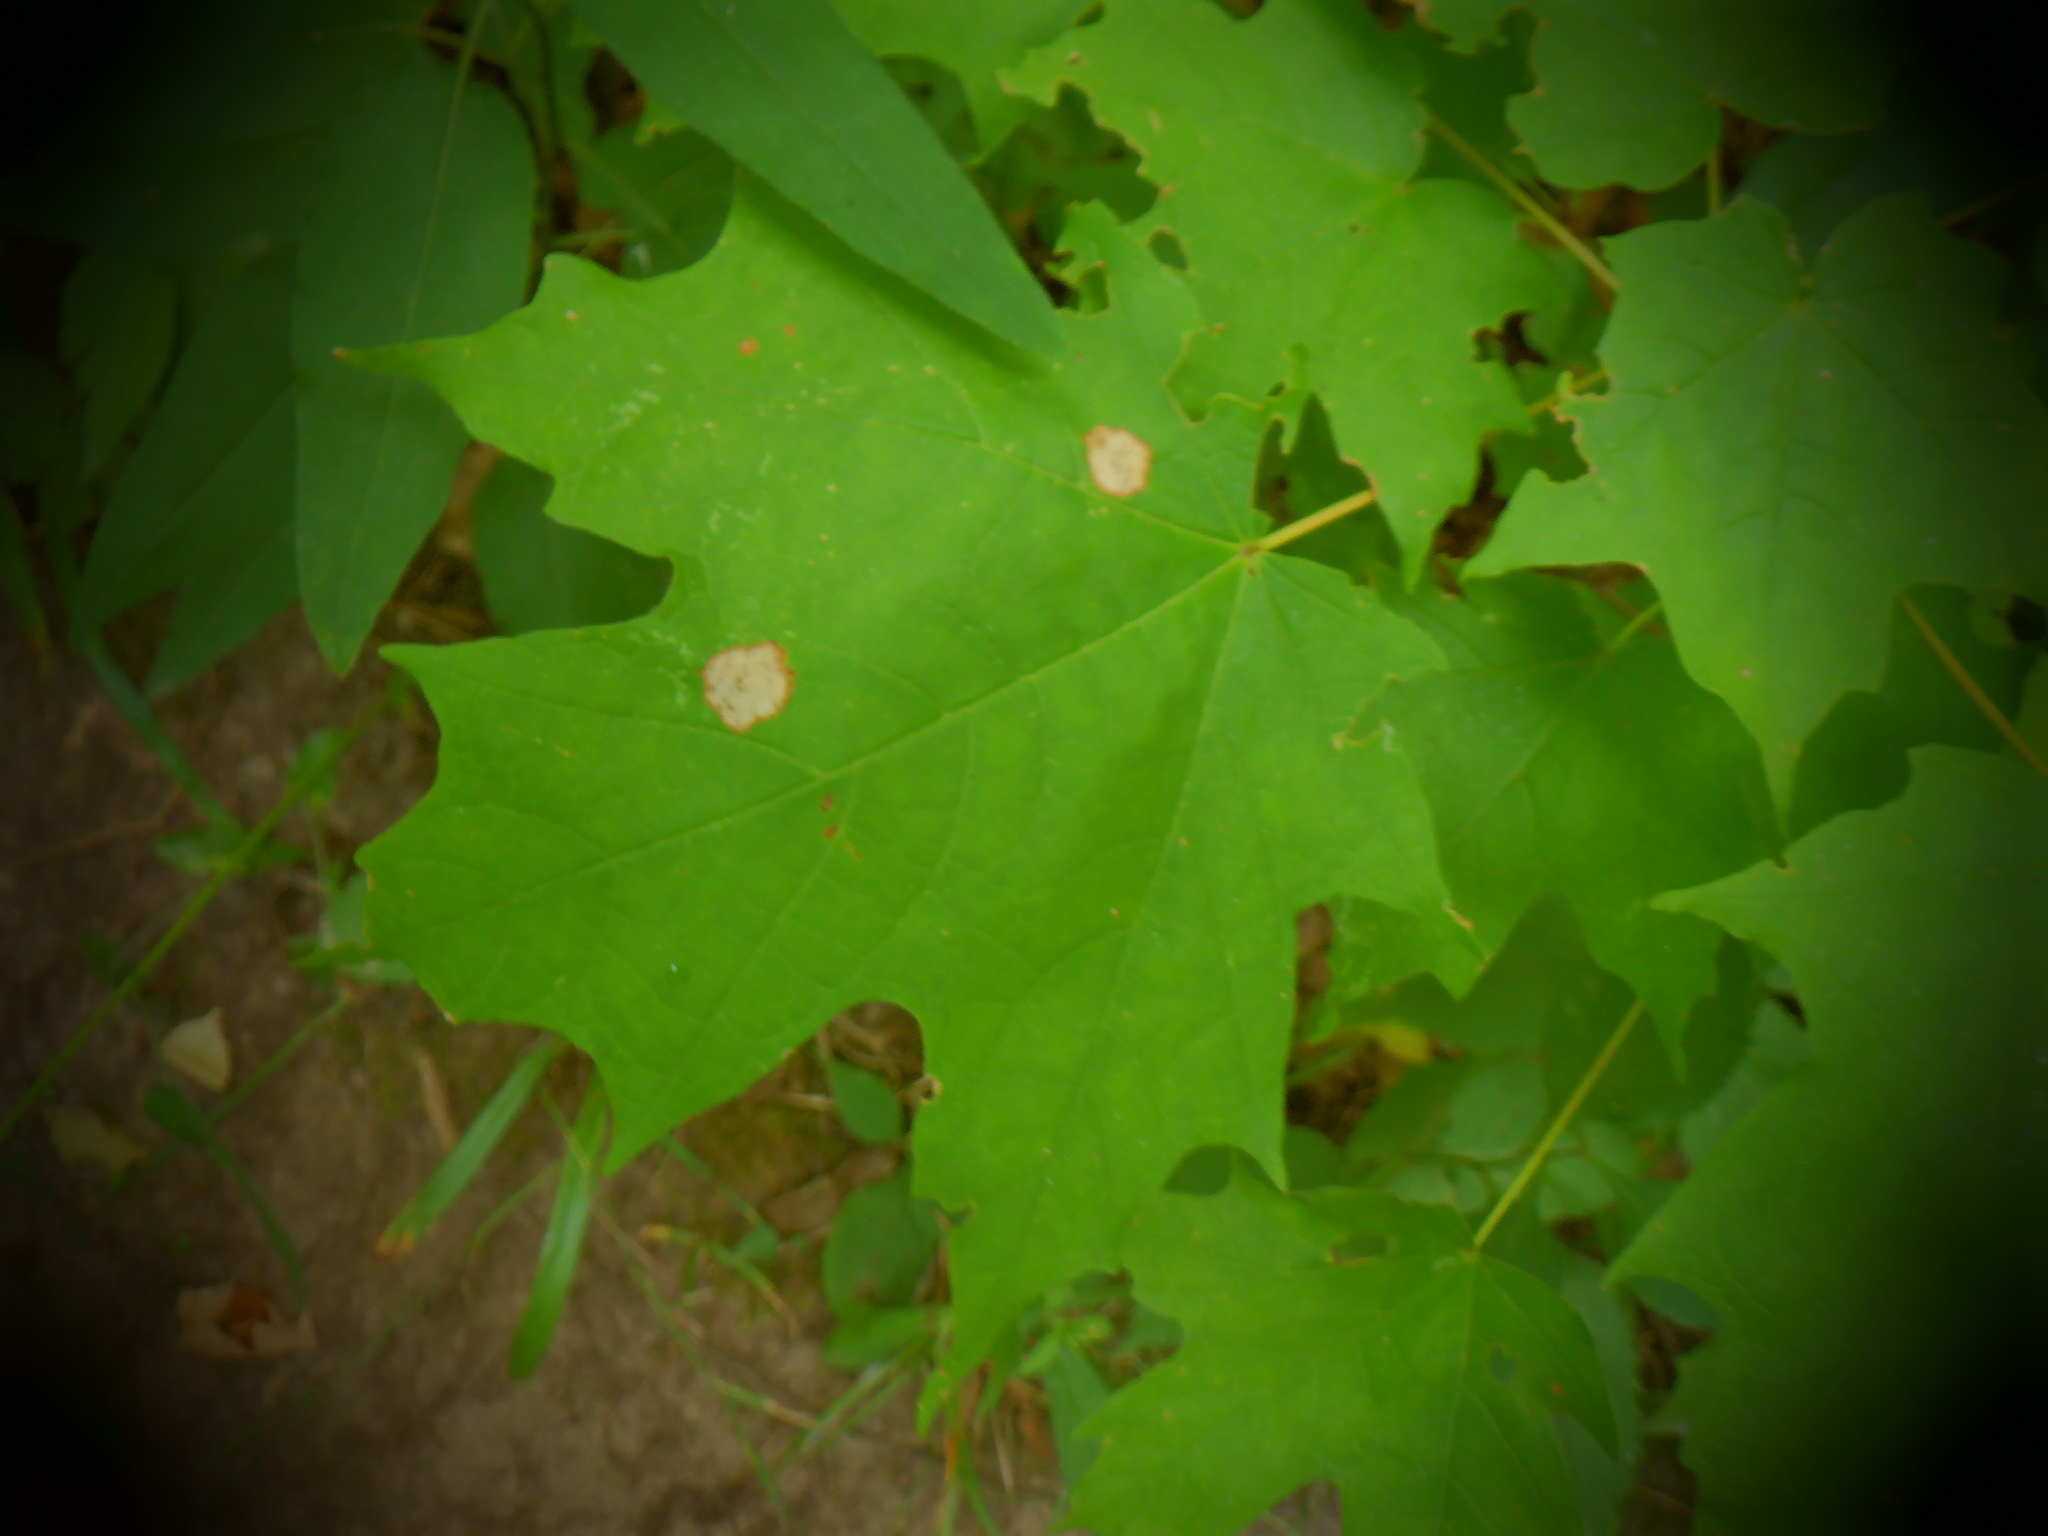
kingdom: Plantae
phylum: Tracheophyta
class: Magnoliopsida
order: Sapindales
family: Sapindaceae
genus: Acer
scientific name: Acer saccharum
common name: Sugar maple
